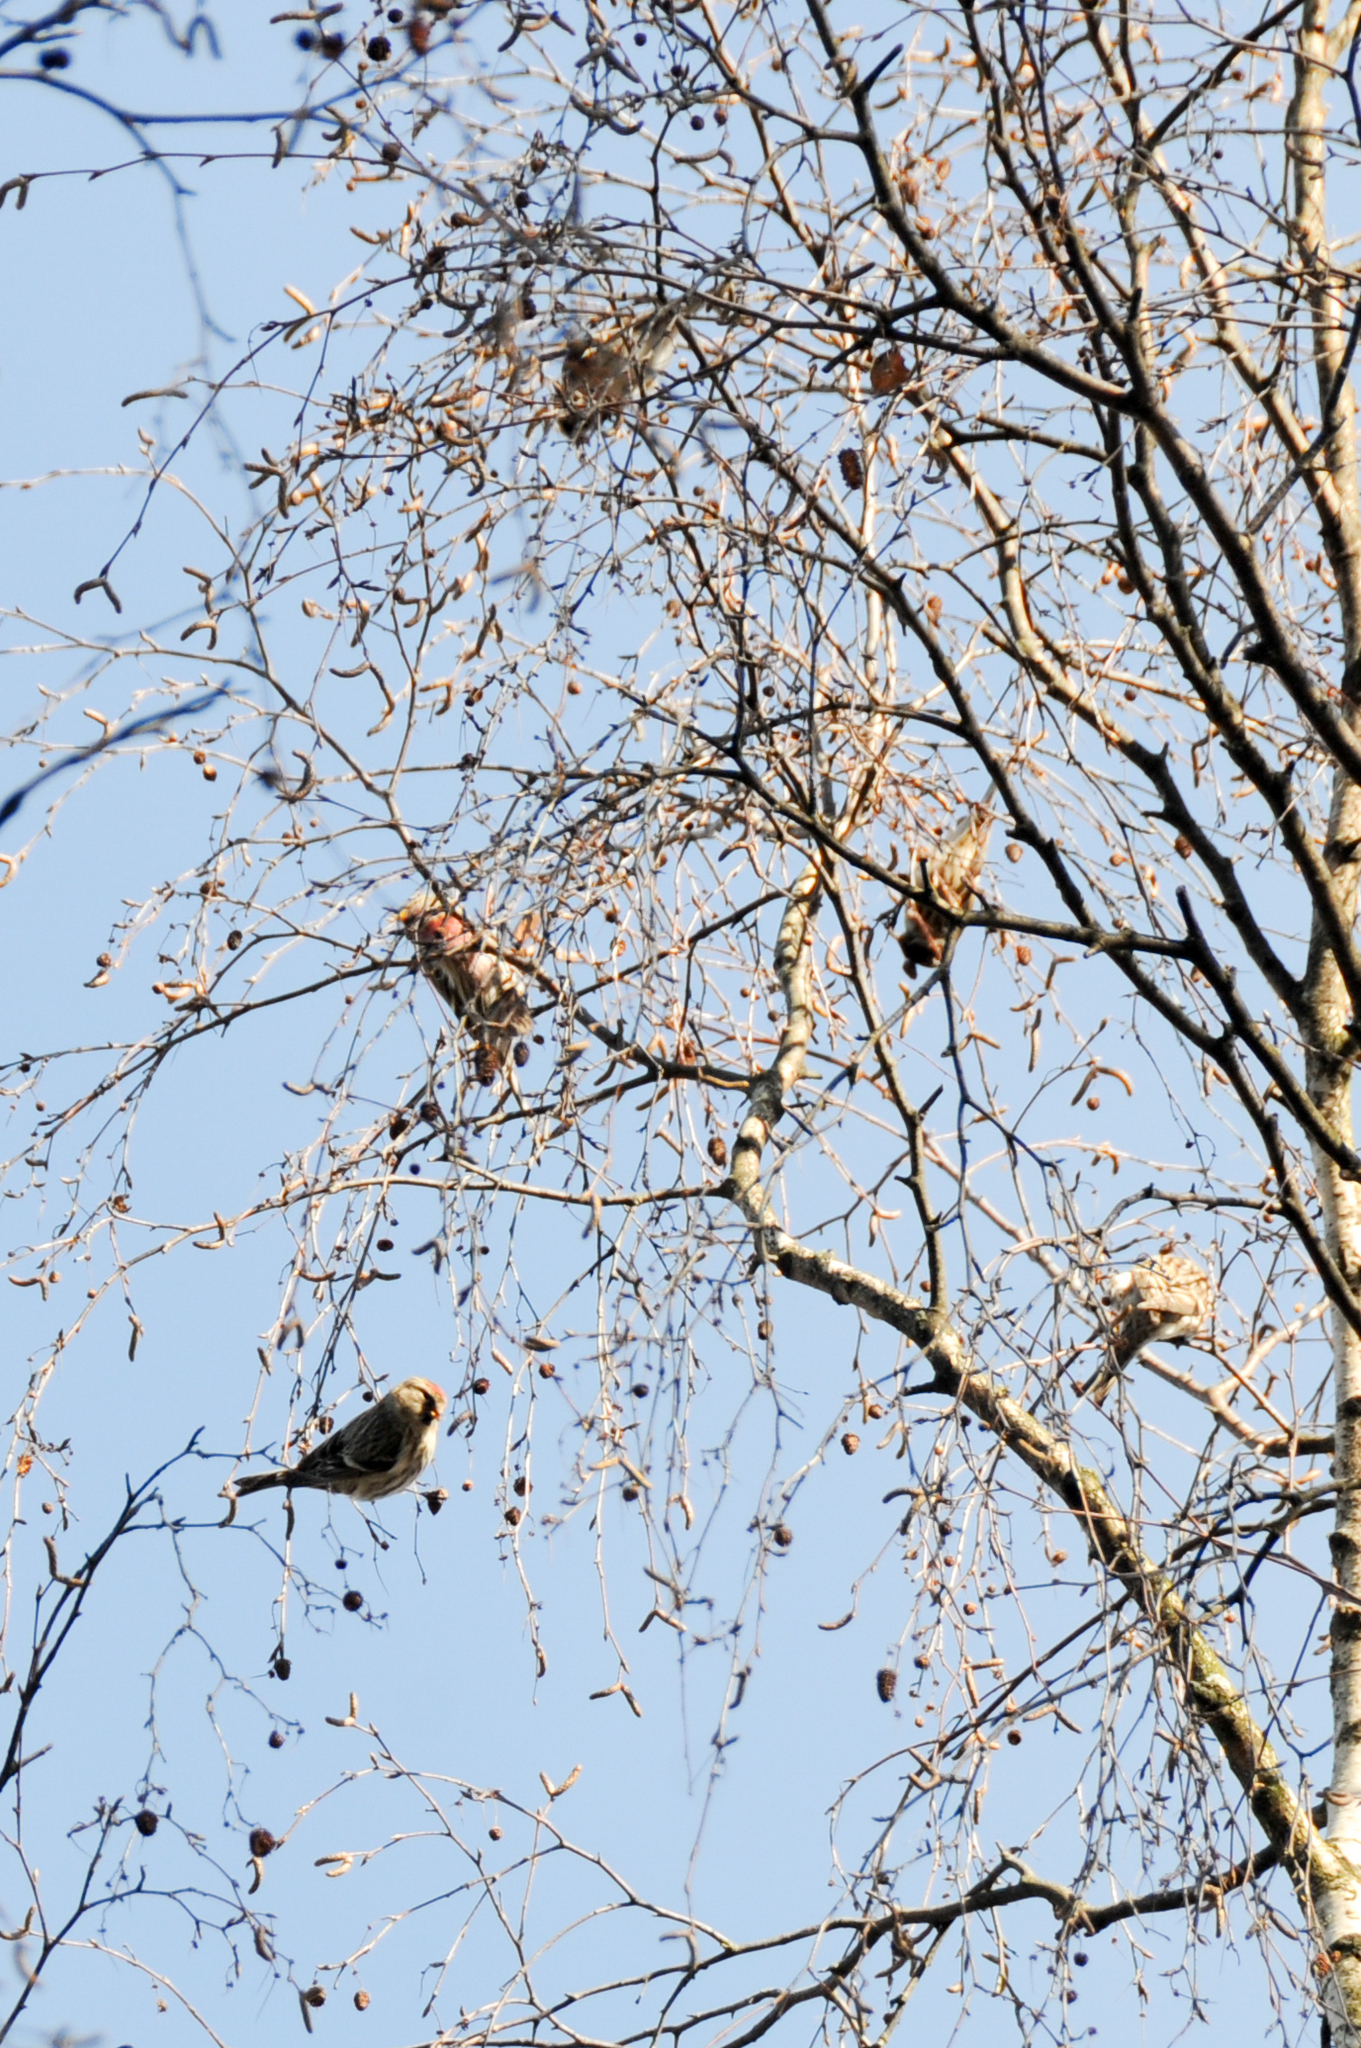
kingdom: Animalia
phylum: Chordata
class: Aves
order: Passeriformes
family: Fringillidae
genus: Acanthis
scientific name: Acanthis flammea
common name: Common redpoll
